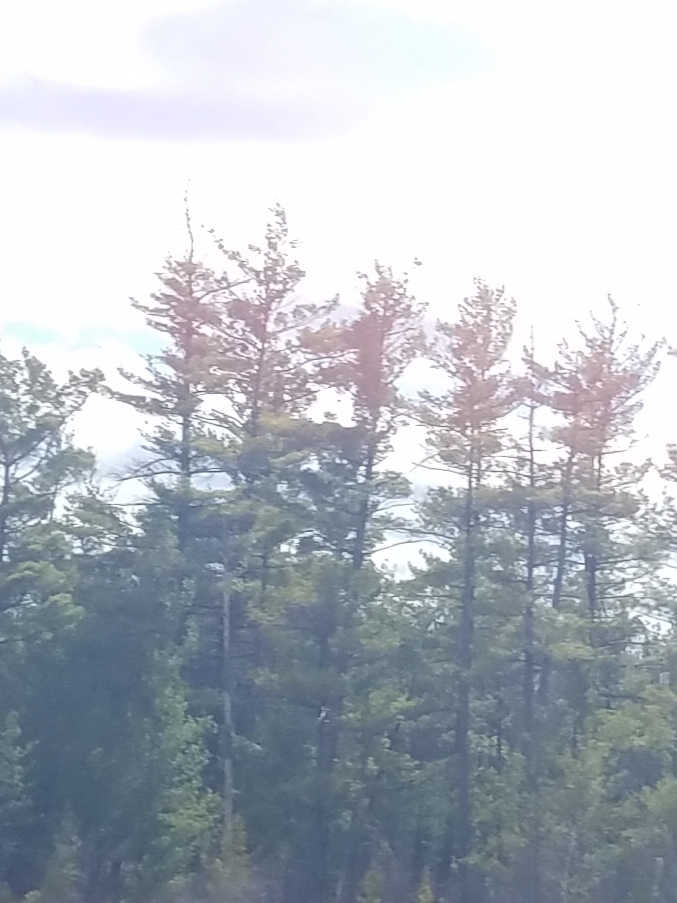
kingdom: Plantae
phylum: Tracheophyta
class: Pinopsida
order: Pinales
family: Pinaceae
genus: Pinus
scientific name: Pinus strobus
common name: Weymouth pine
